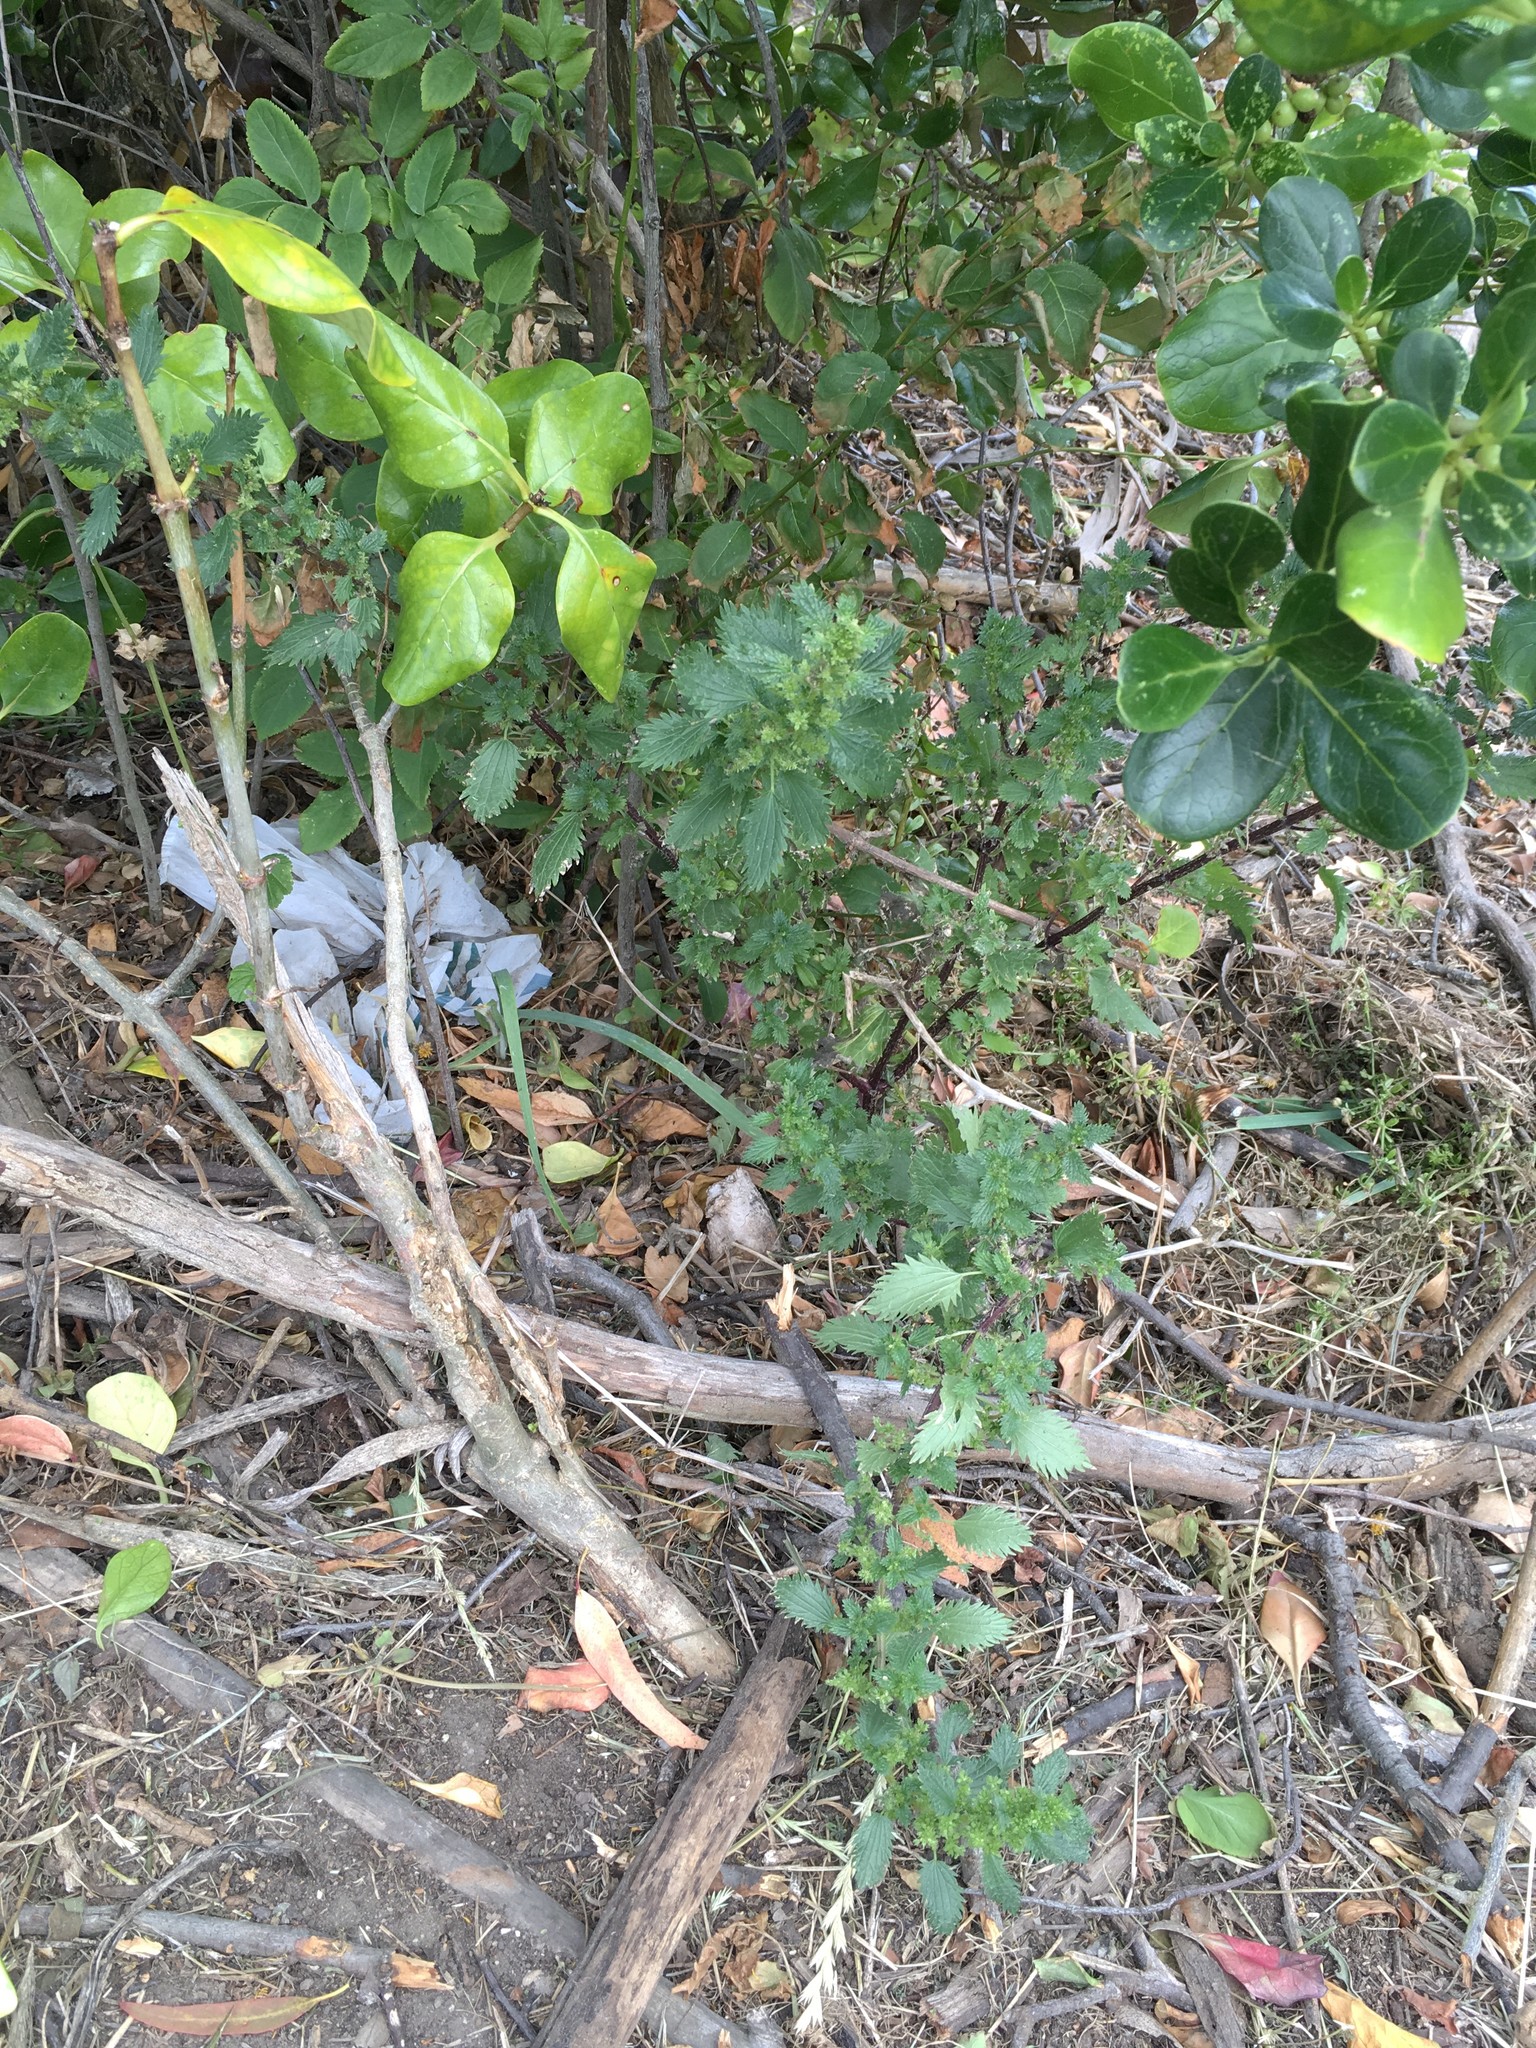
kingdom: Plantae
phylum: Tracheophyta
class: Magnoliopsida
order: Rosales
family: Urticaceae
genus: Urtica
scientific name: Urtica urens
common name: Dwarf nettle
